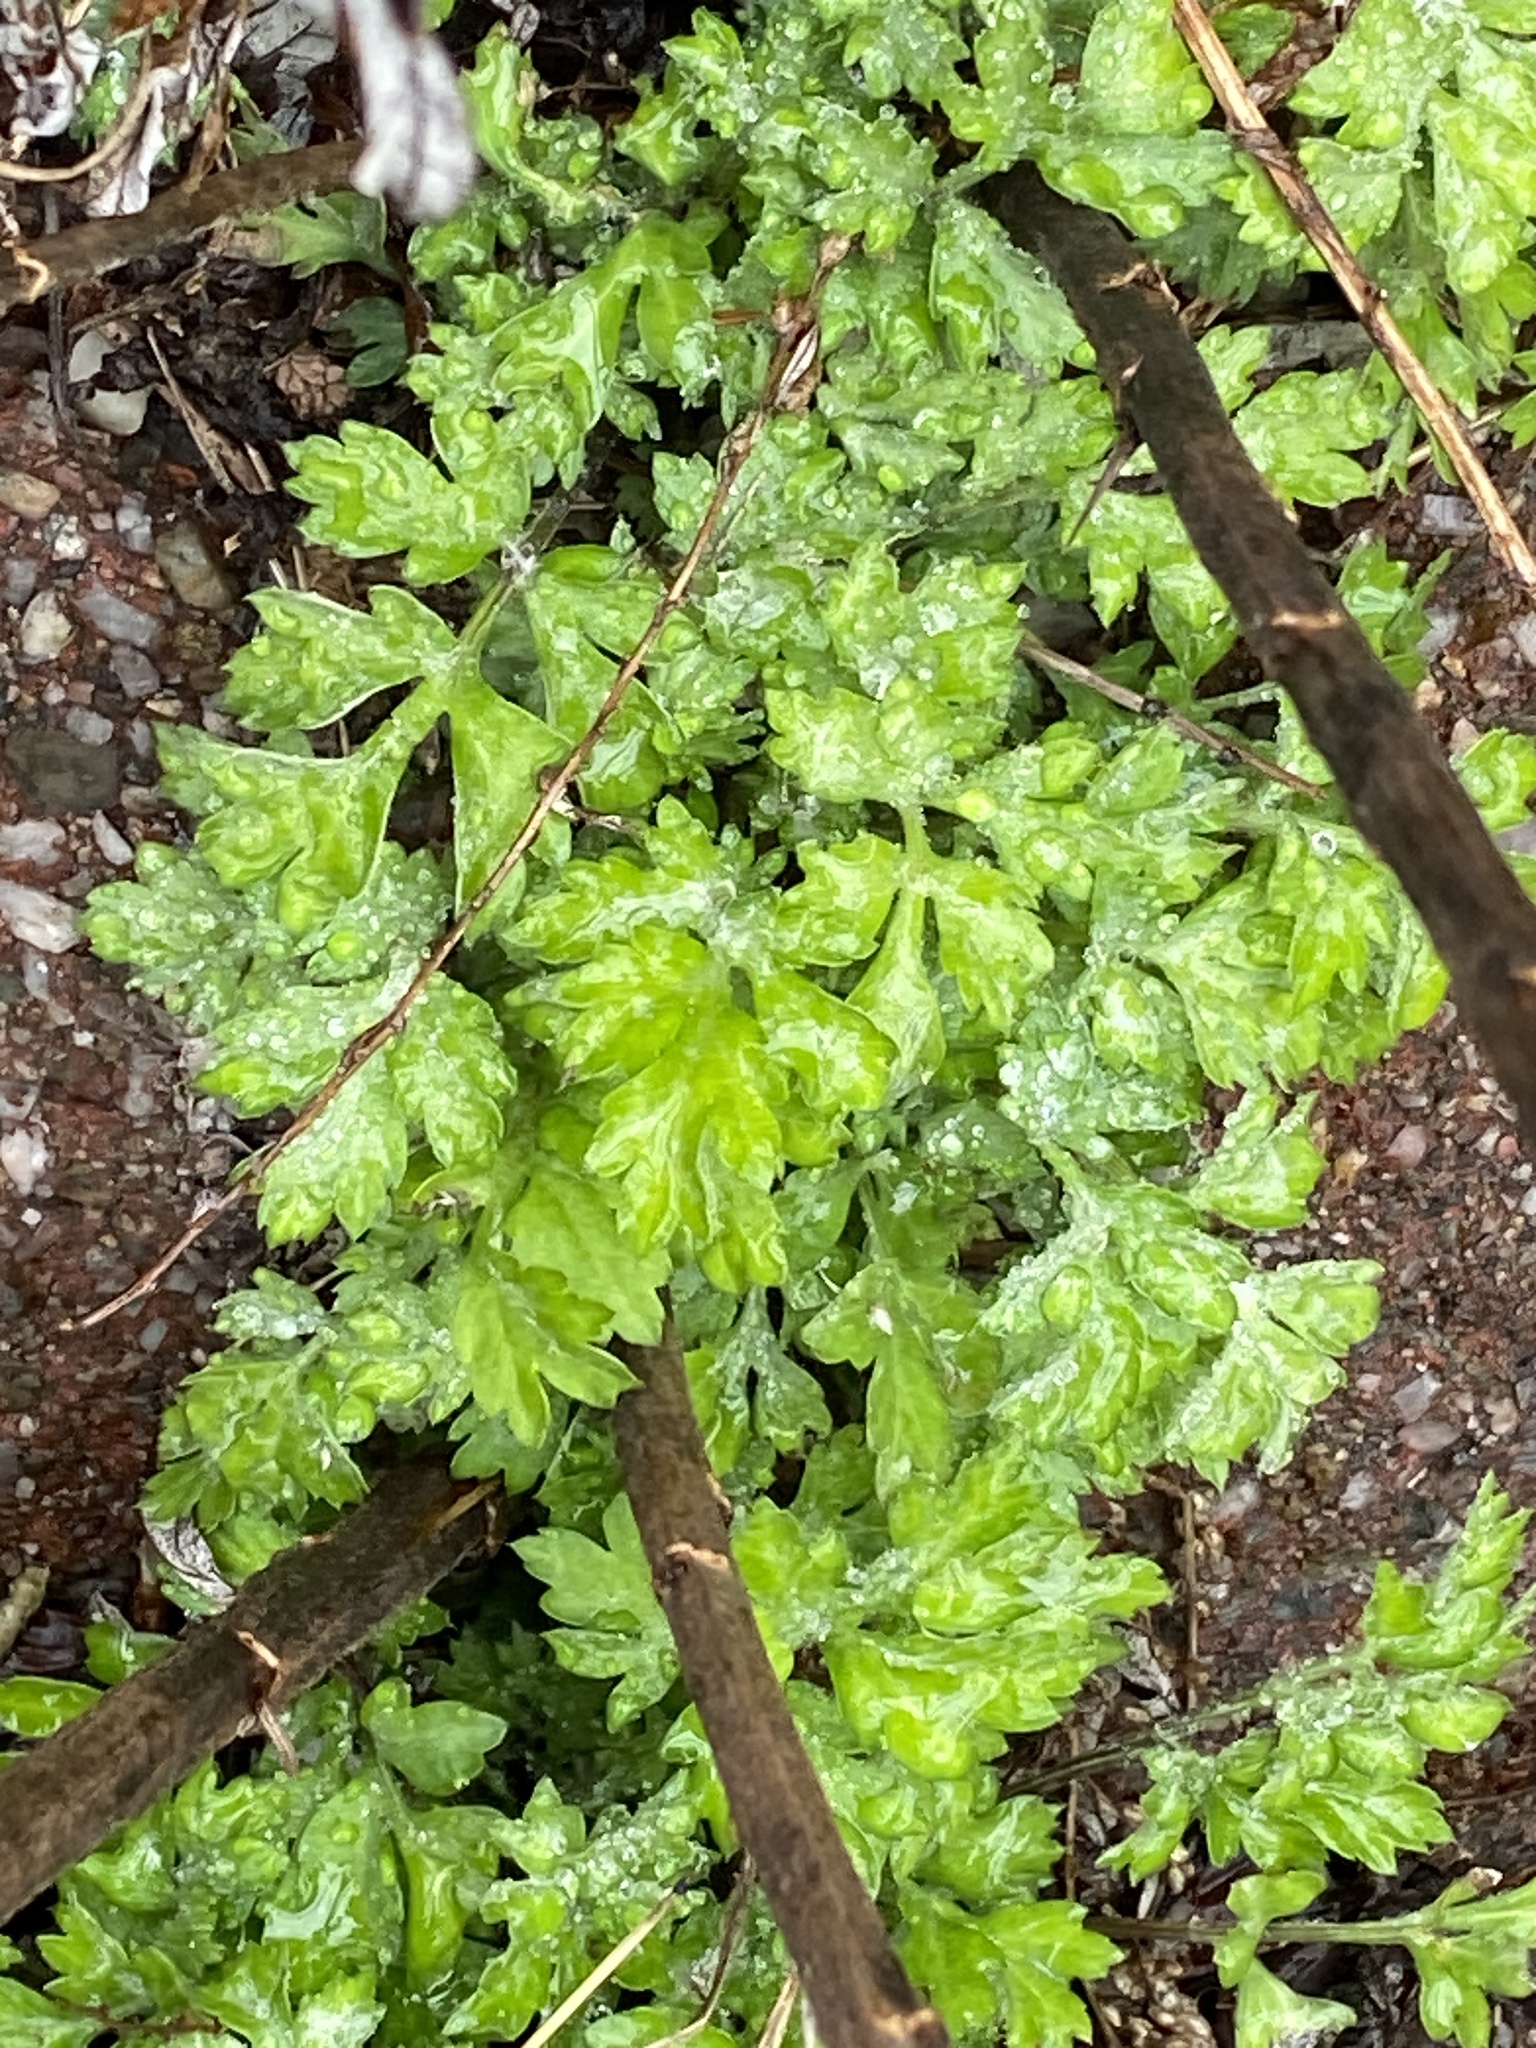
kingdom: Plantae
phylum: Tracheophyta
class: Magnoliopsida
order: Asterales
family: Asteraceae
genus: Artemisia
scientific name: Artemisia vulgaris
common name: Mugwort
